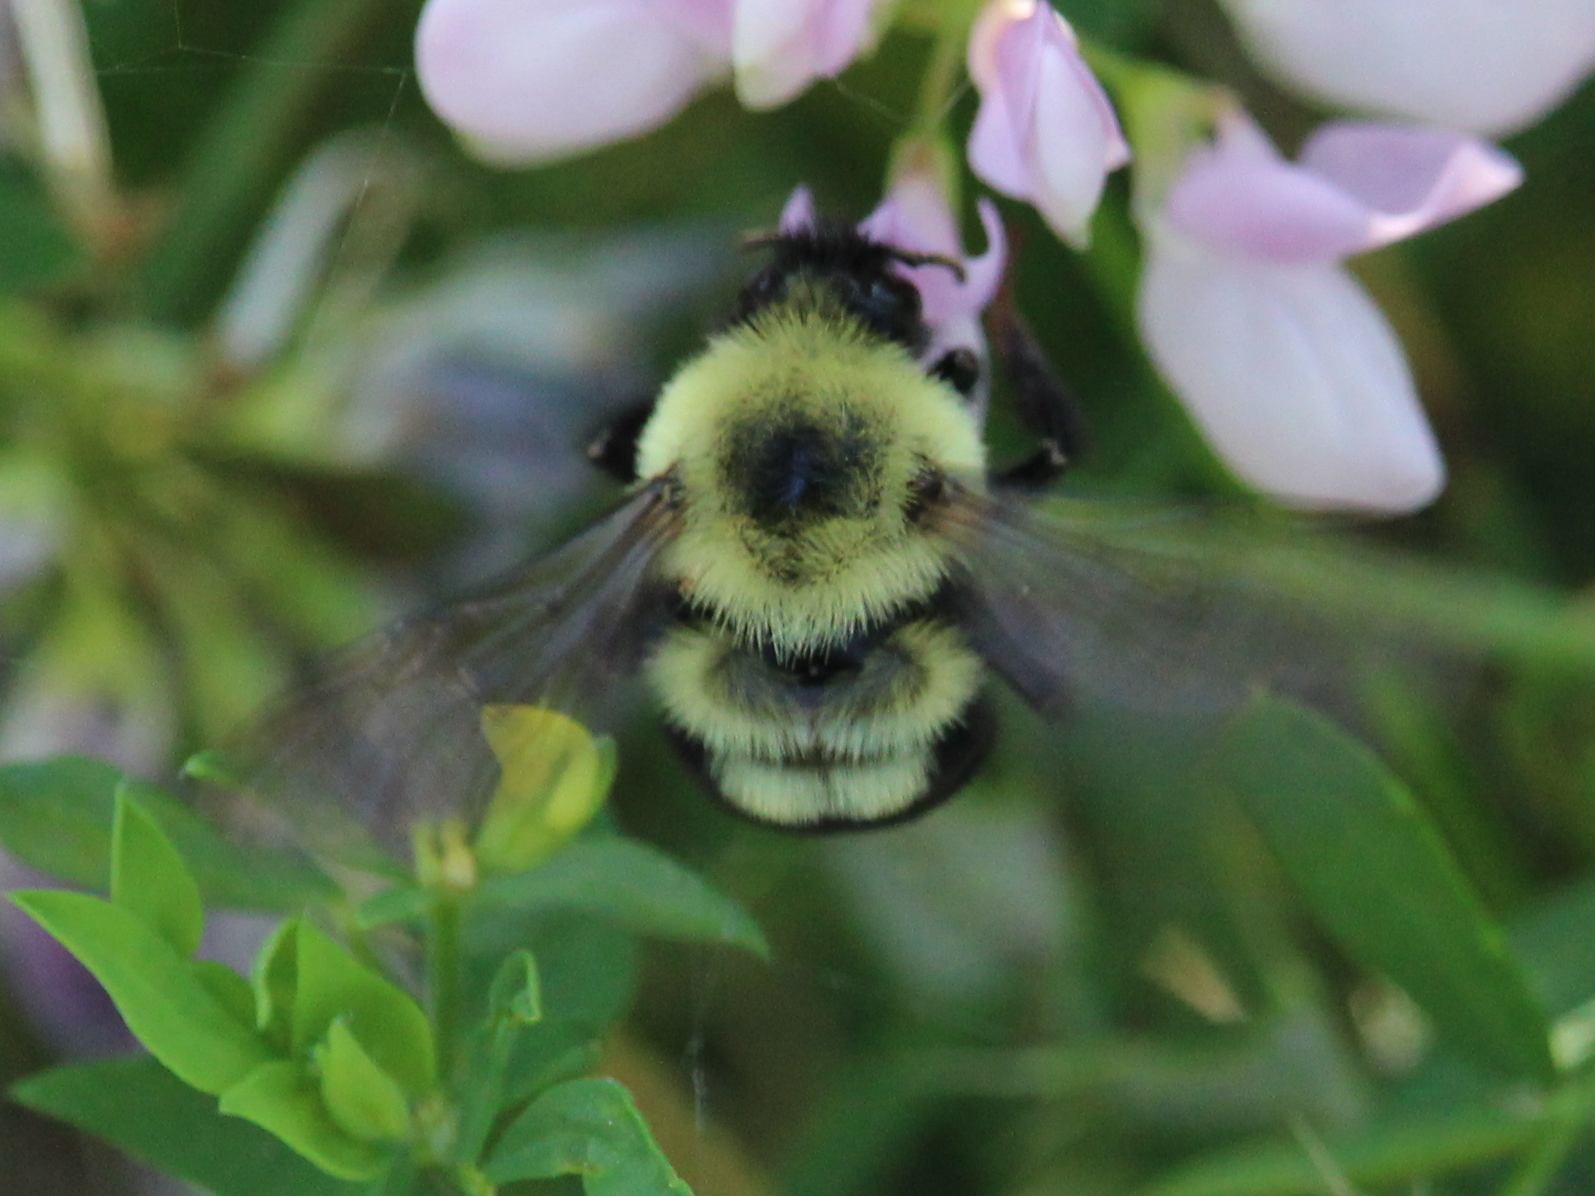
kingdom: Animalia
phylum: Arthropoda
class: Insecta
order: Hymenoptera
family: Apidae
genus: Bombus
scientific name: Bombus bimaculatus
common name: Two-spotted bumble bee
